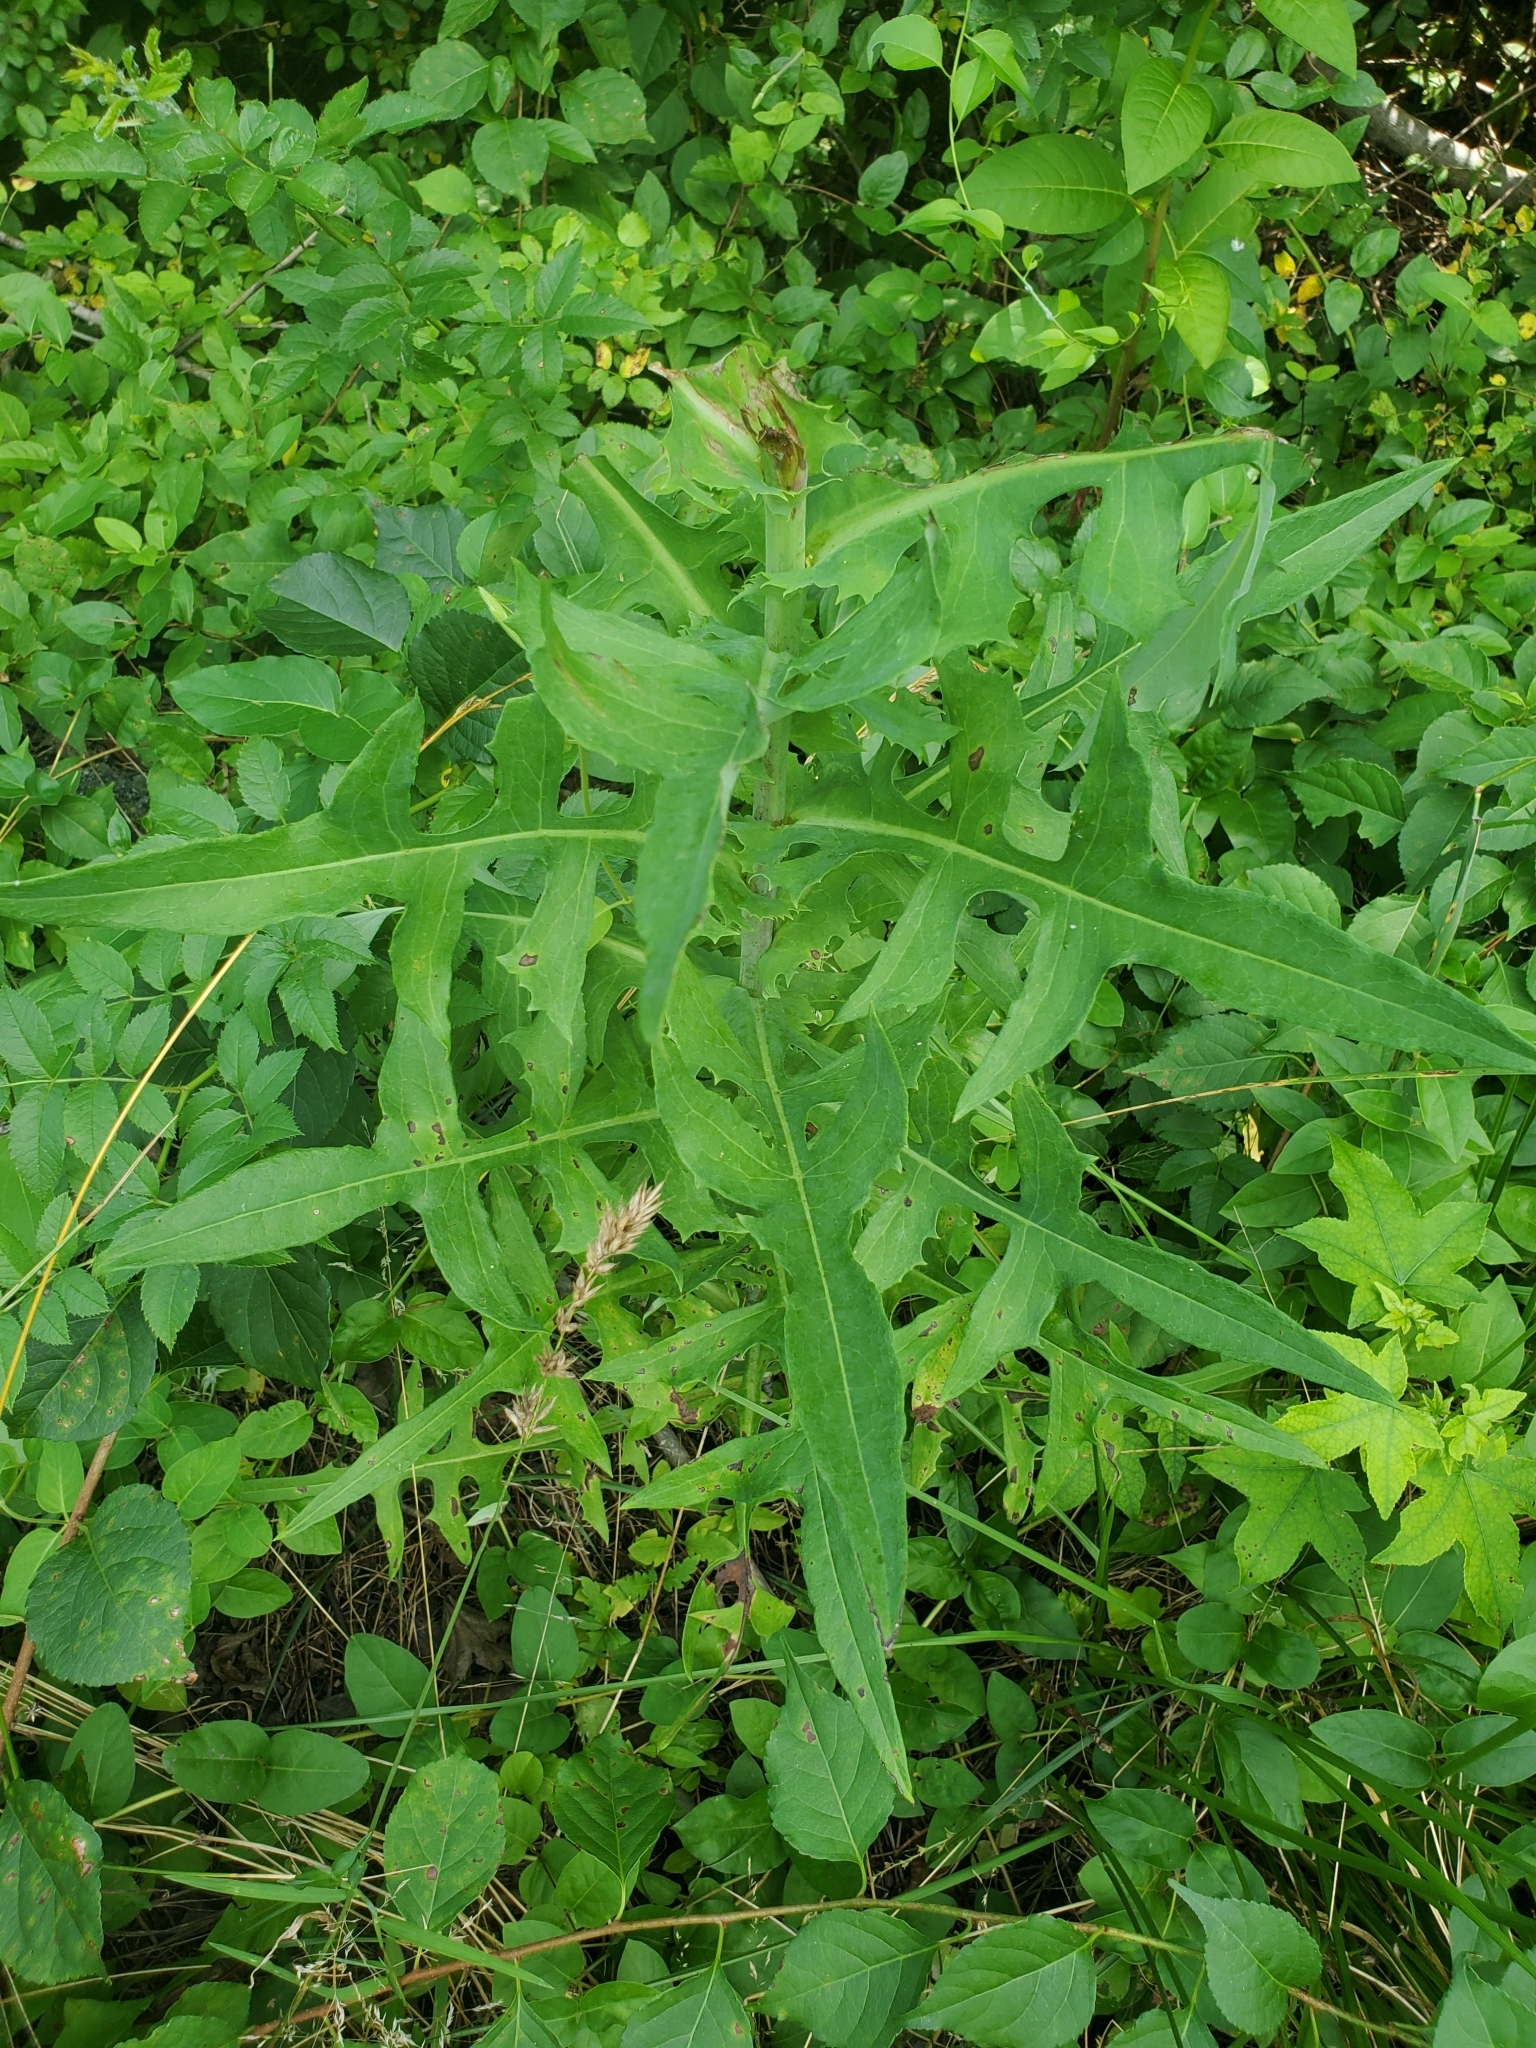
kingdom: Plantae
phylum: Tracheophyta
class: Magnoliopsida
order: Asterales
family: Asteraceae
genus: Lactuca
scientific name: Lactuca canadensis
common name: Canada lettuce
